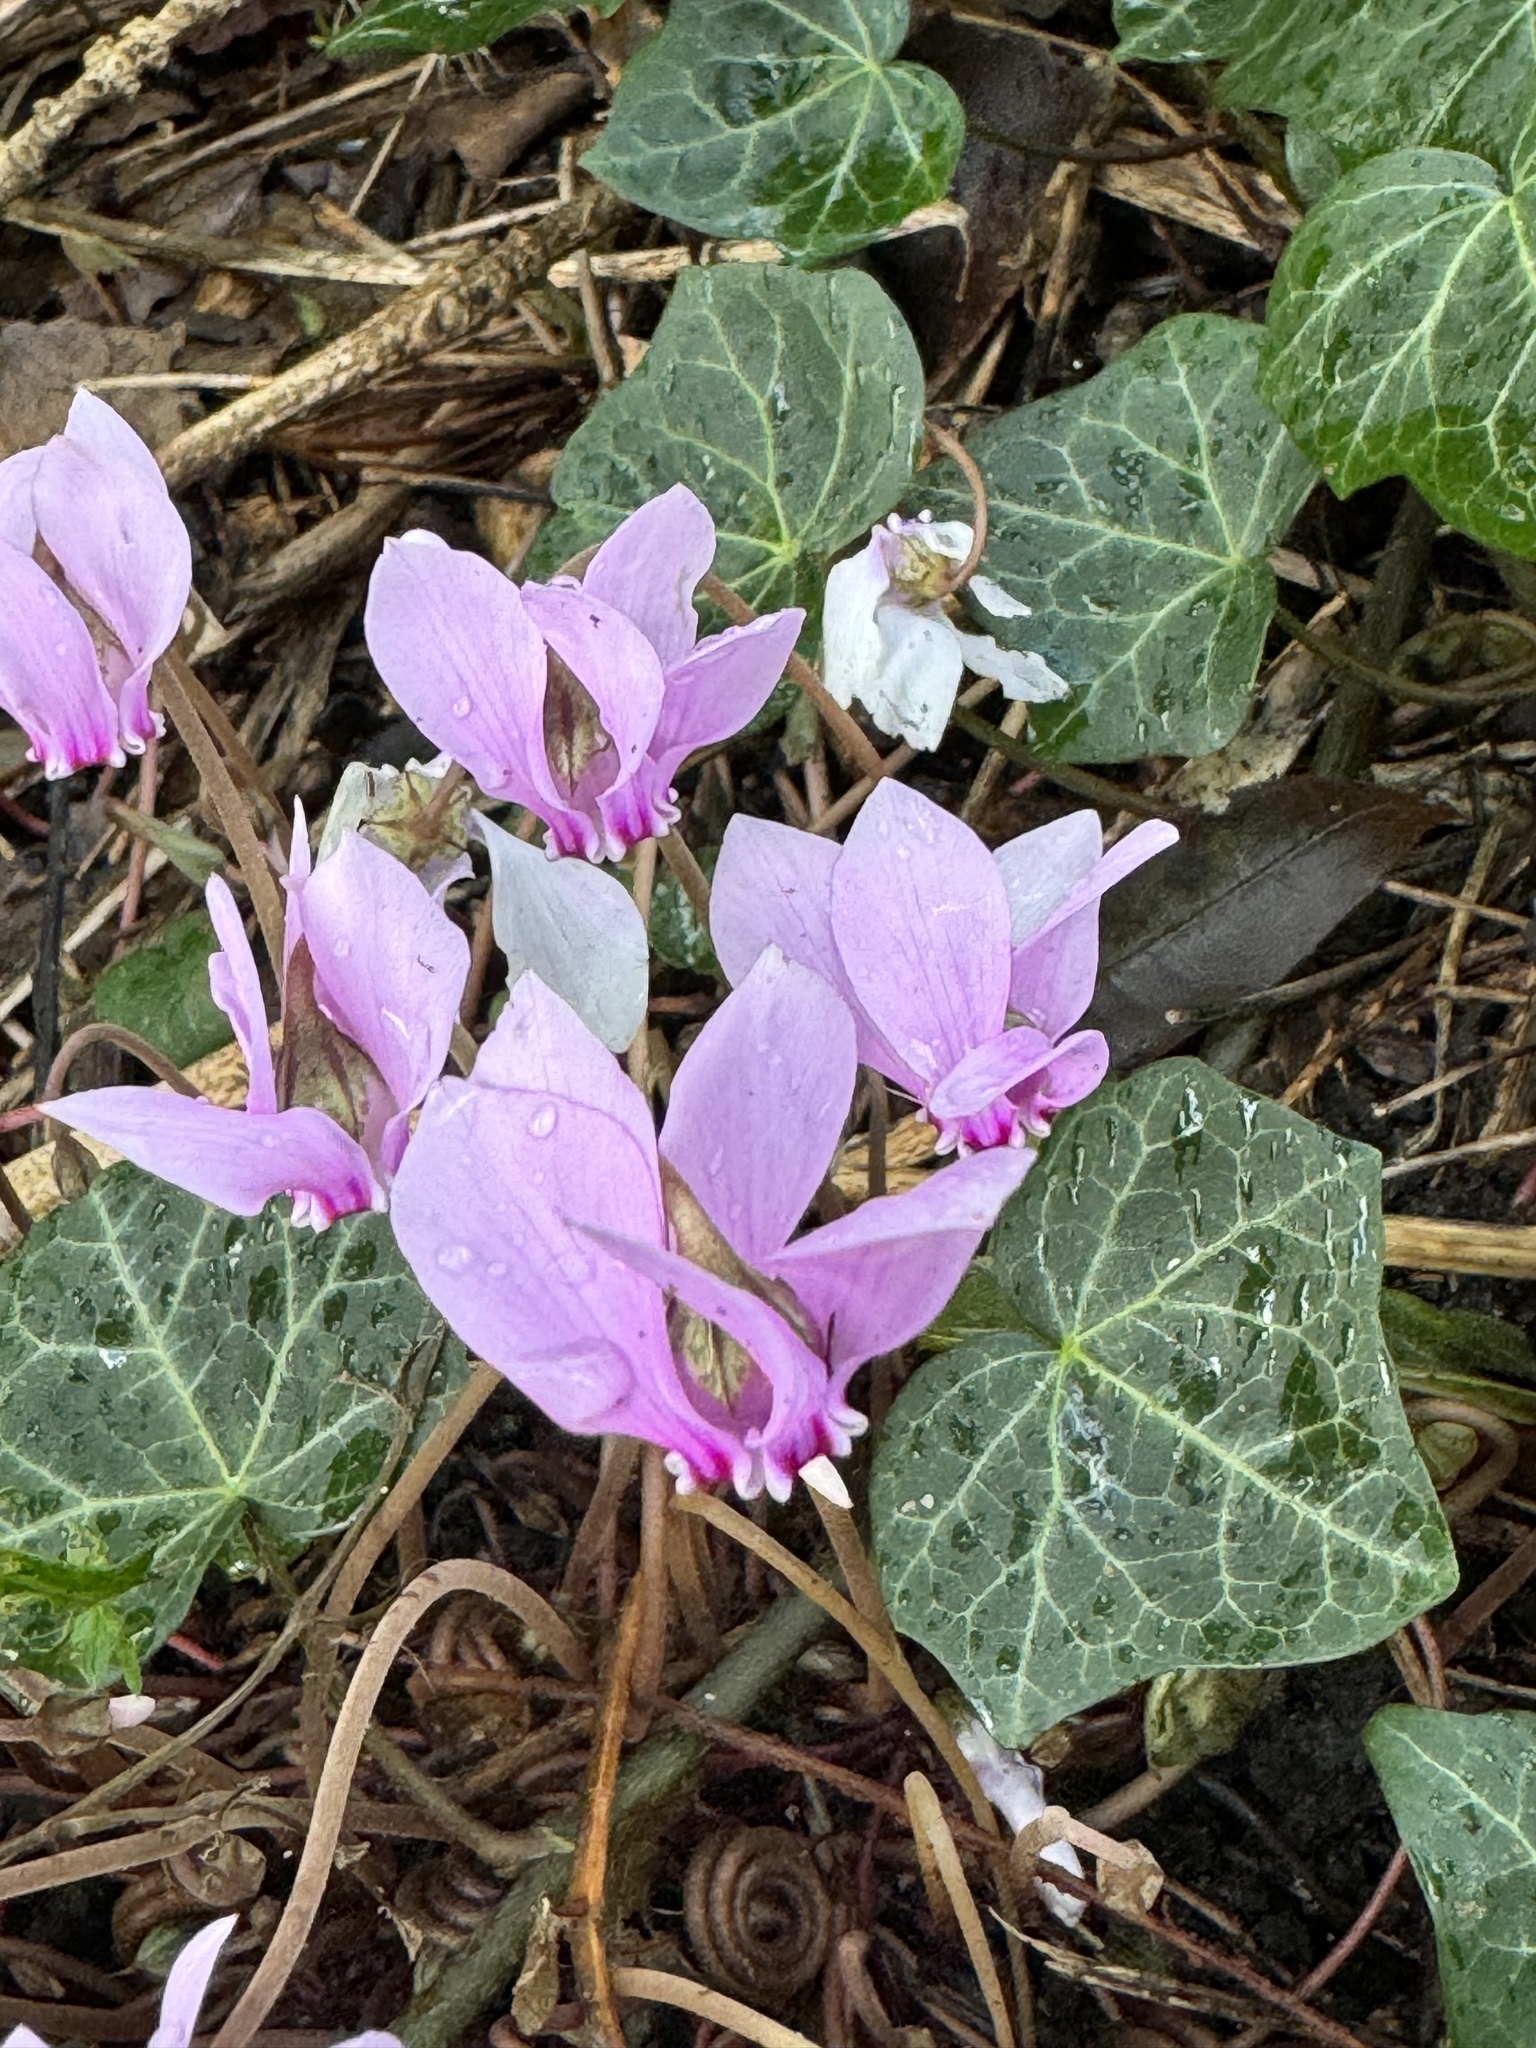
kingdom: Plantae
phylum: Tracheophyta
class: Magnoliopsida
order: Ericales
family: Primulaceae
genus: Cyclamen
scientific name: Cyclamen hederifolium
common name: Sowbread
